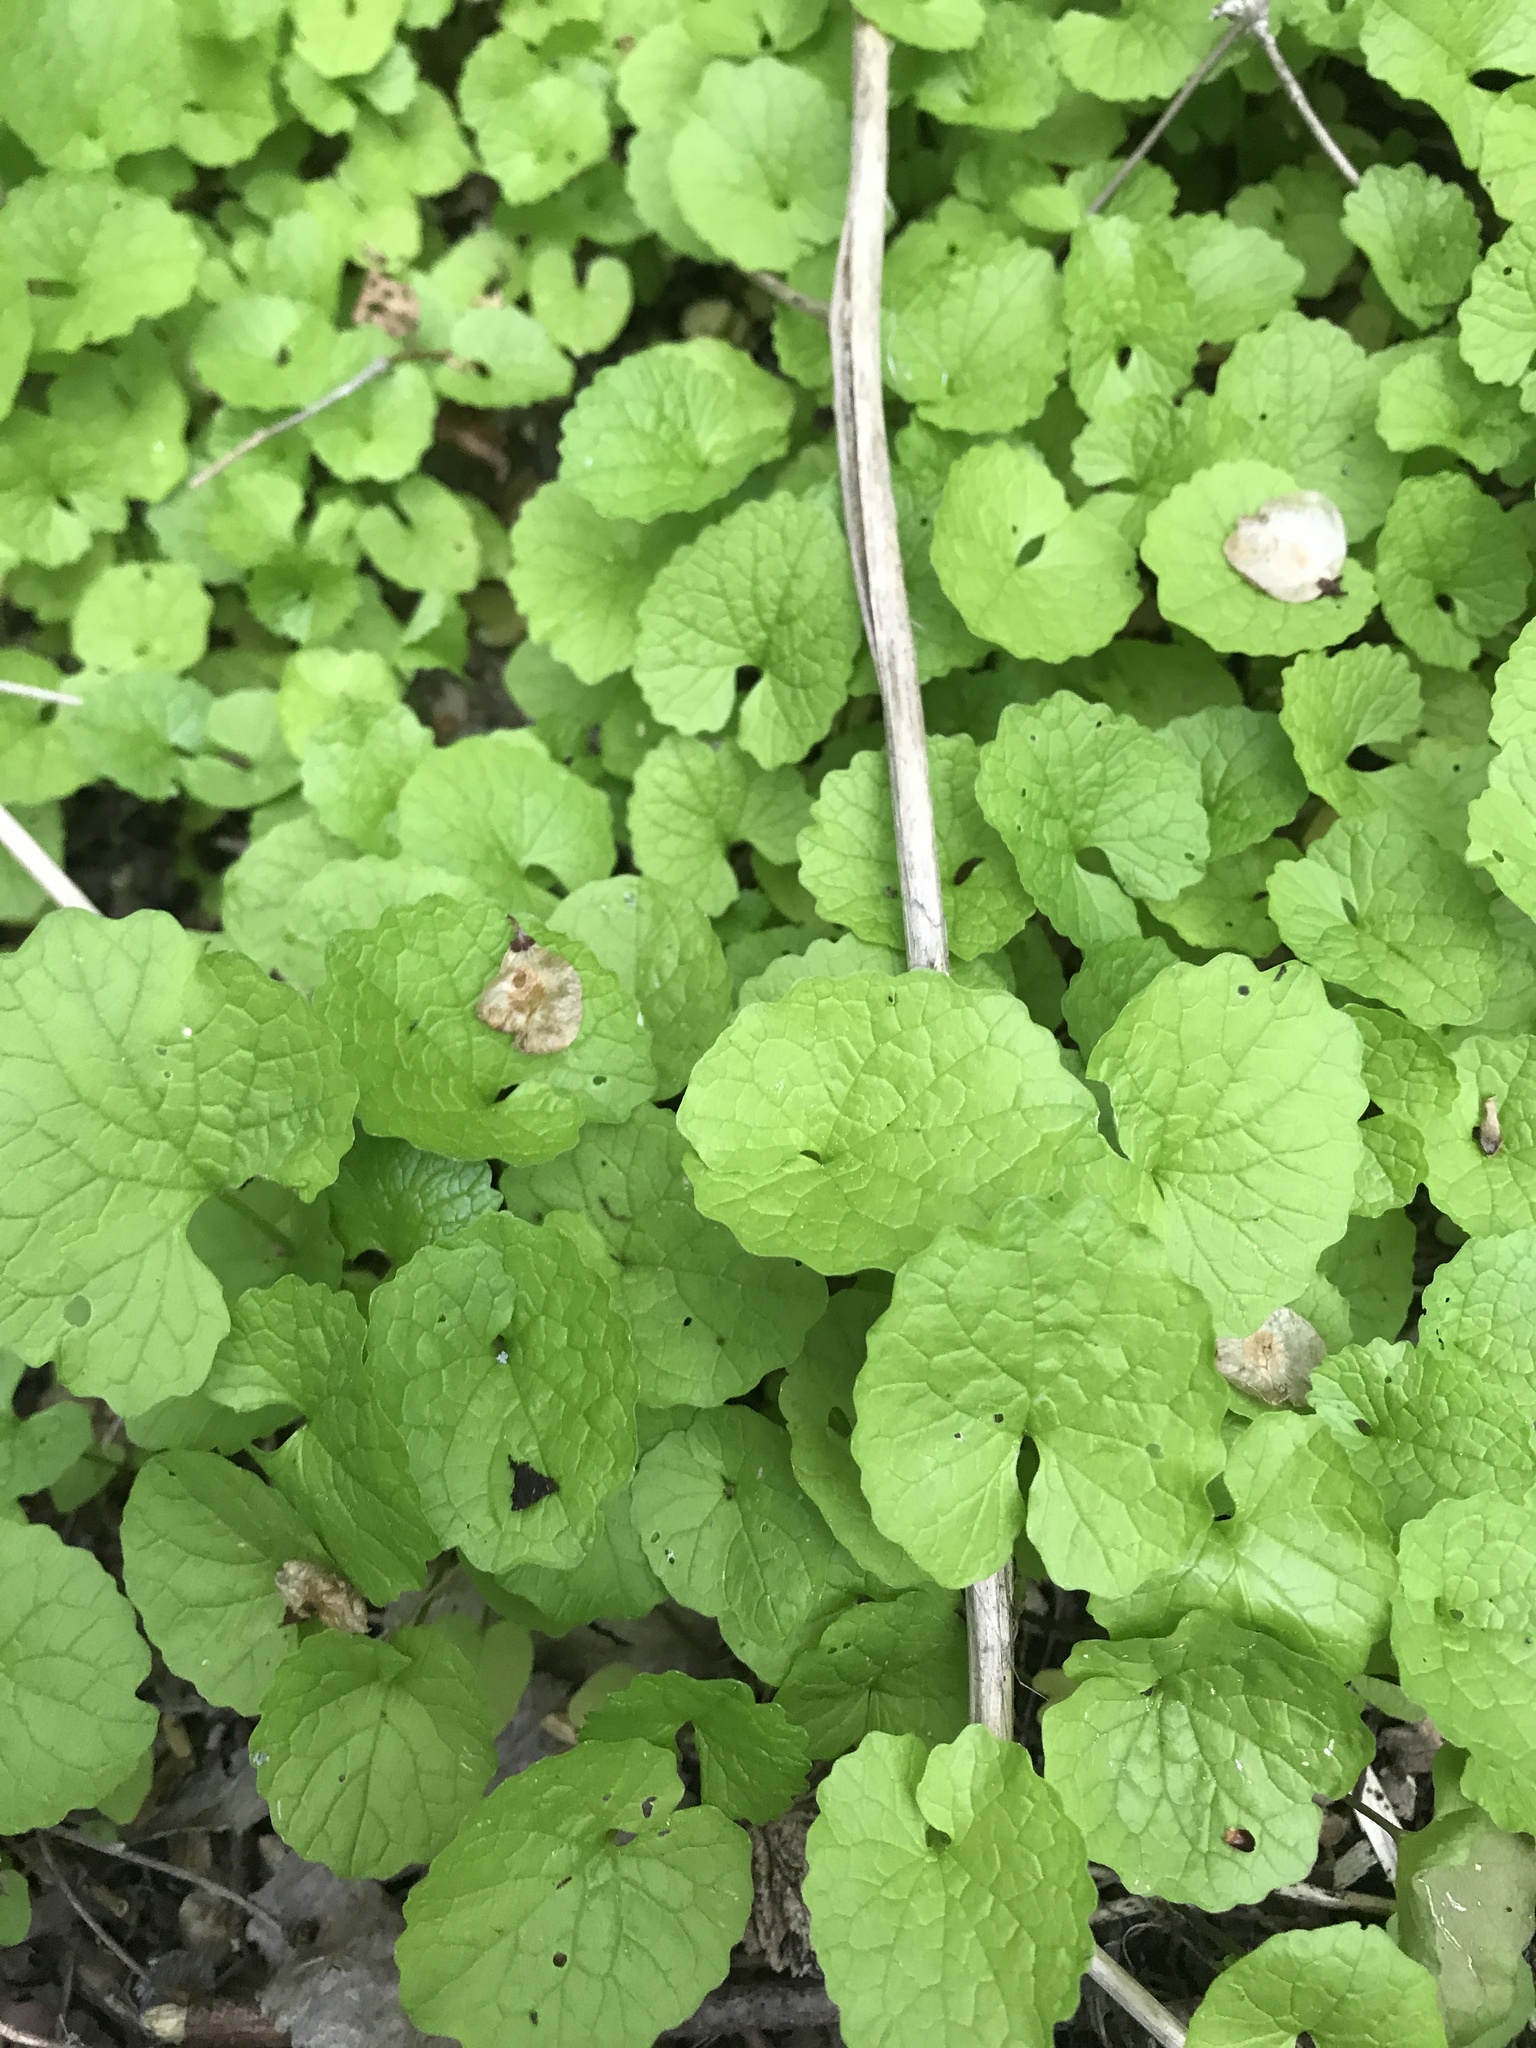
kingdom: Plantae
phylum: Tracheophyta
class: Magnoliopsida
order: Brassicales
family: Brassicaceae
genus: Alliaria
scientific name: Alliaria petiolata
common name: Garlic mustard
